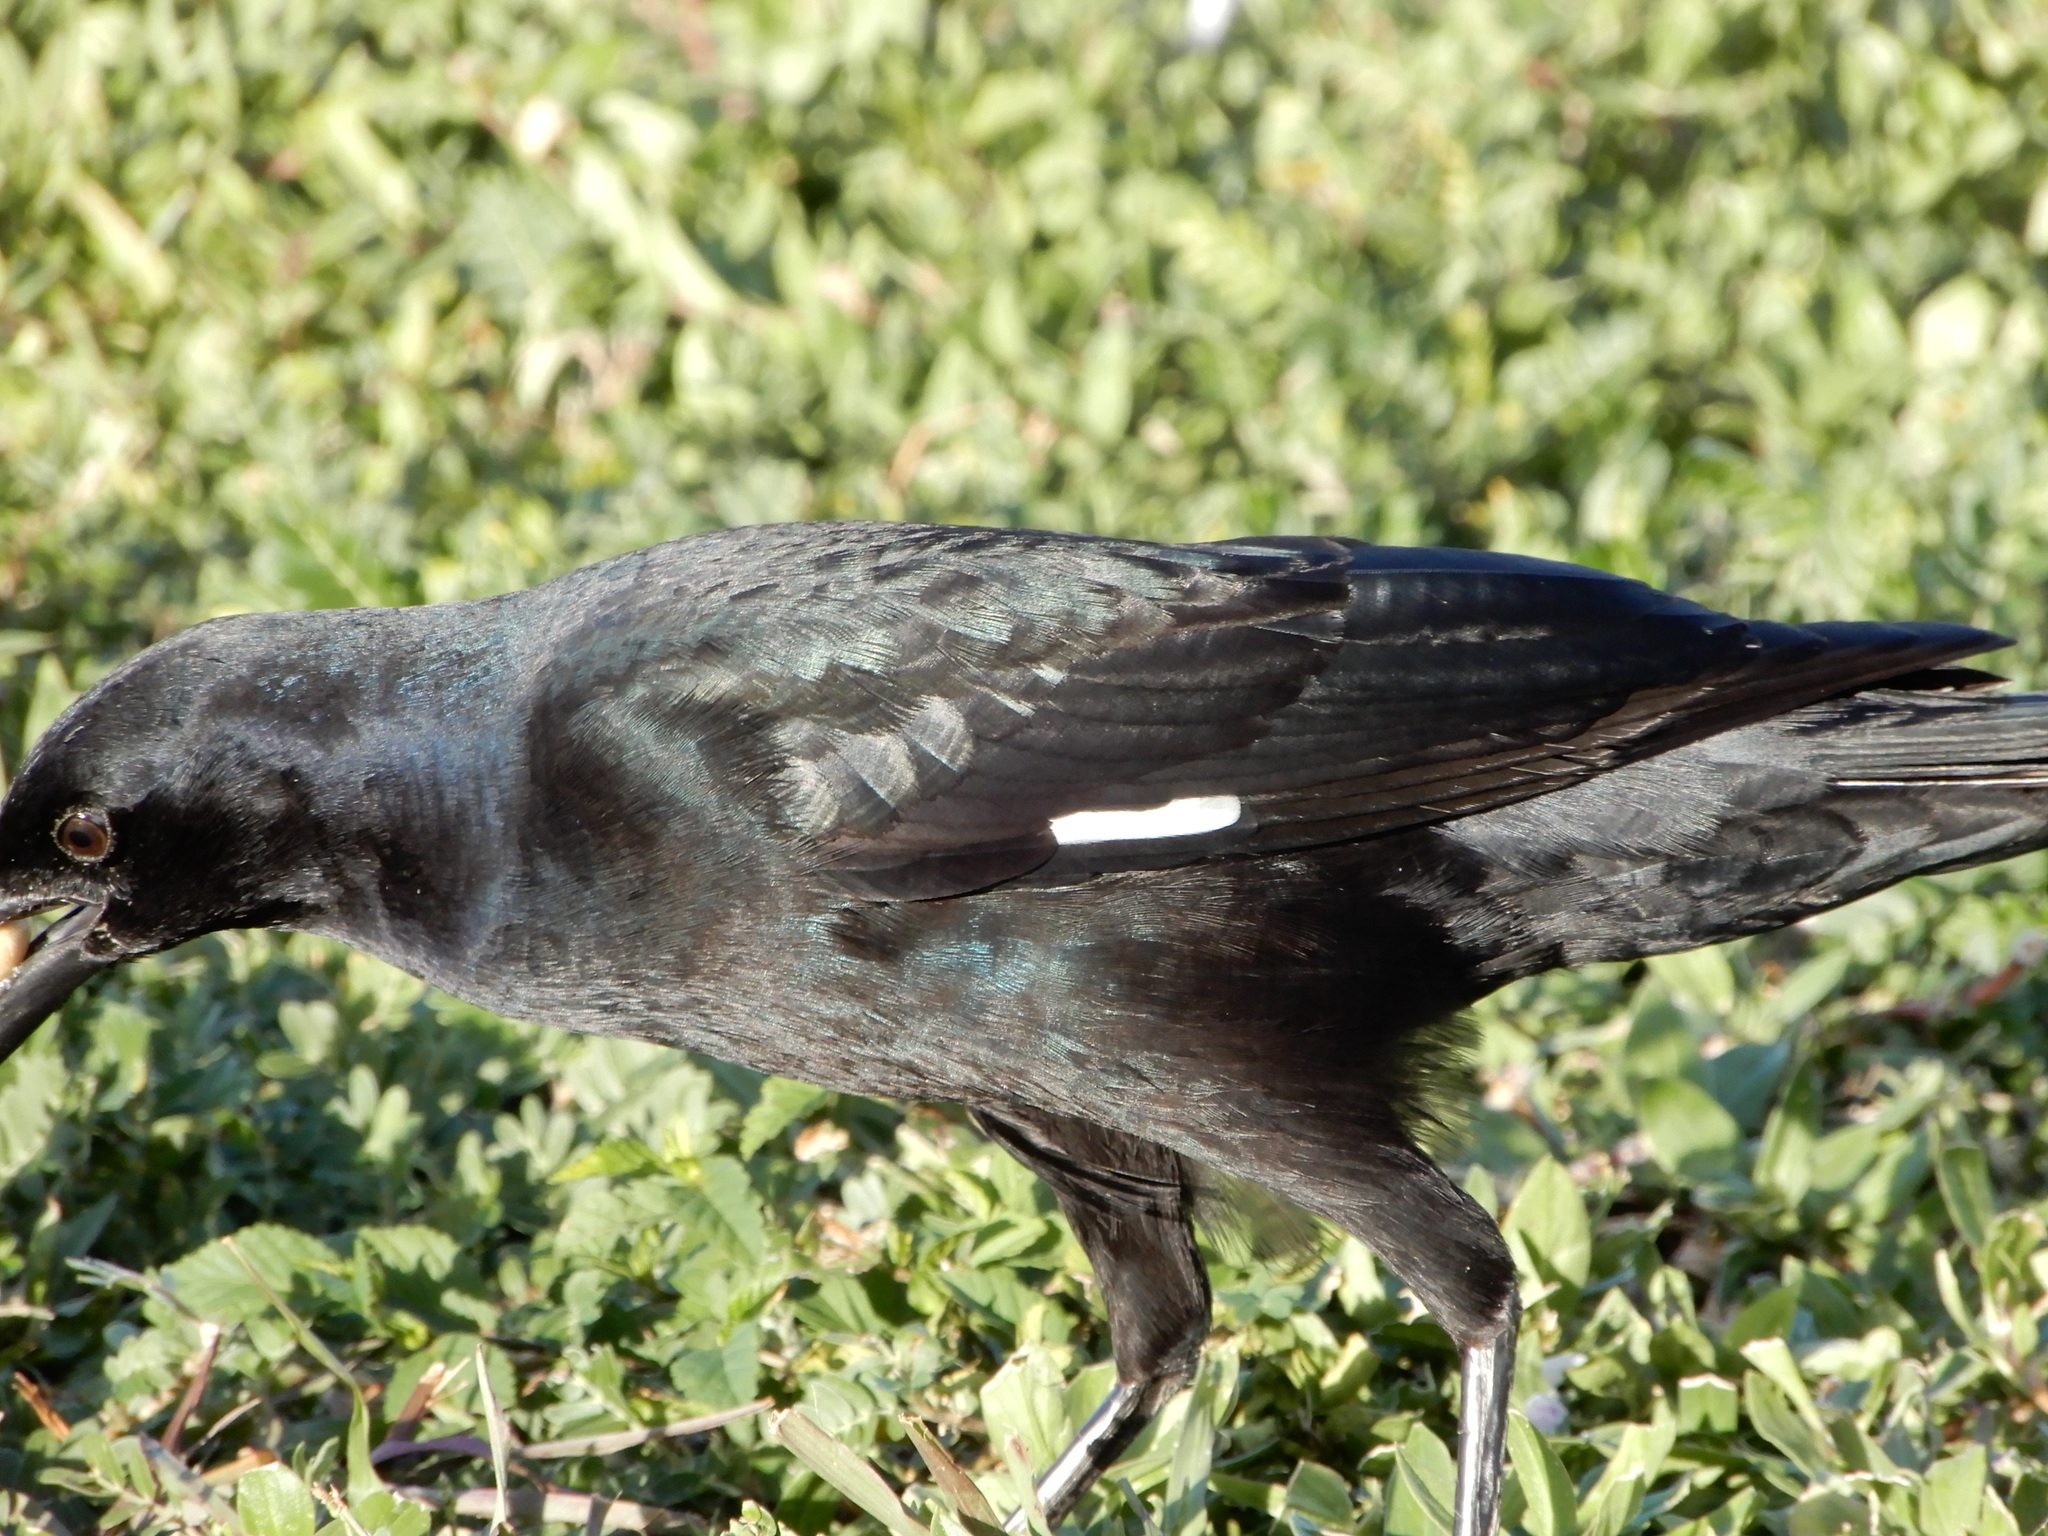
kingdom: Animalia
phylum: Chordata
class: Aves
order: Passeriformes
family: Icteridae
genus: Quiscalus
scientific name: Quiscalus major
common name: Boat-tailed grackle
